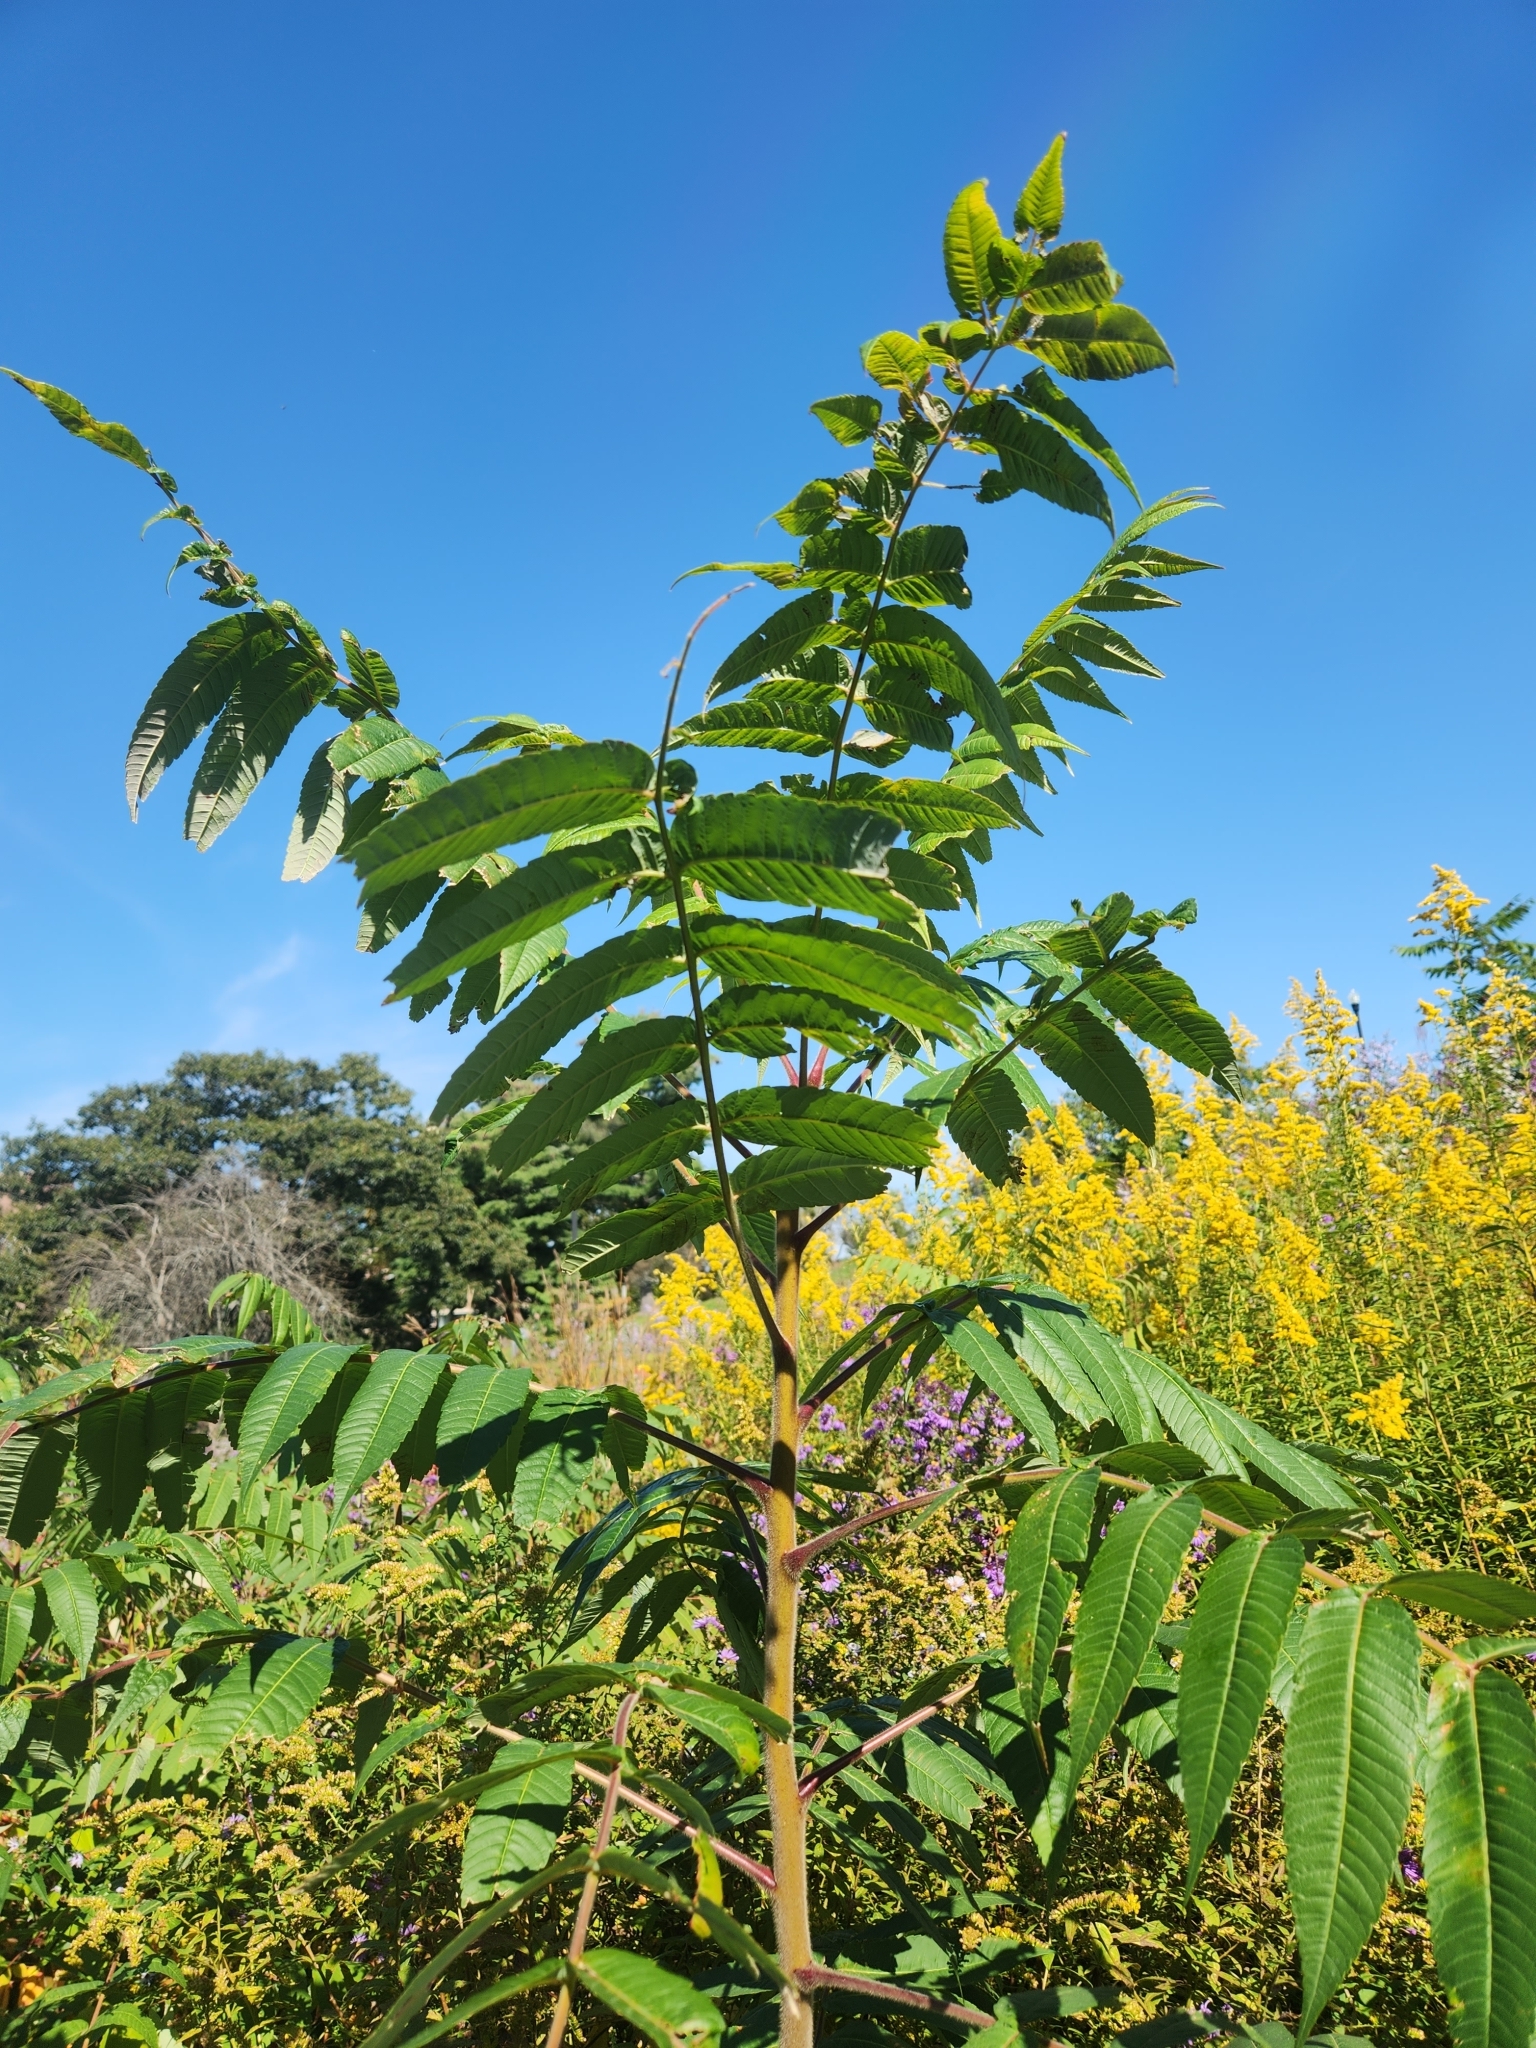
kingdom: Plantae
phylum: Tracheophyta
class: Magnoliopsida
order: Sapindales
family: Anacardiaceae
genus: Rhus
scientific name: Rhus typhina
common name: Staghorn sumac
